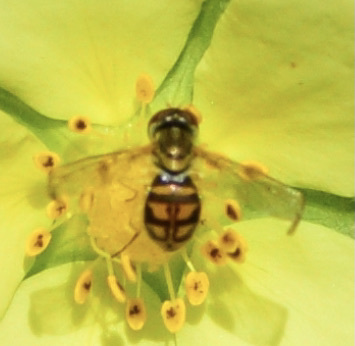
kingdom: Animalia
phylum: Arthropoda
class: Insecta
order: Diptera
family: Syrphidae
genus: Toxomerus
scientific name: Toxomerus marginatus
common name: Syrphid fly
